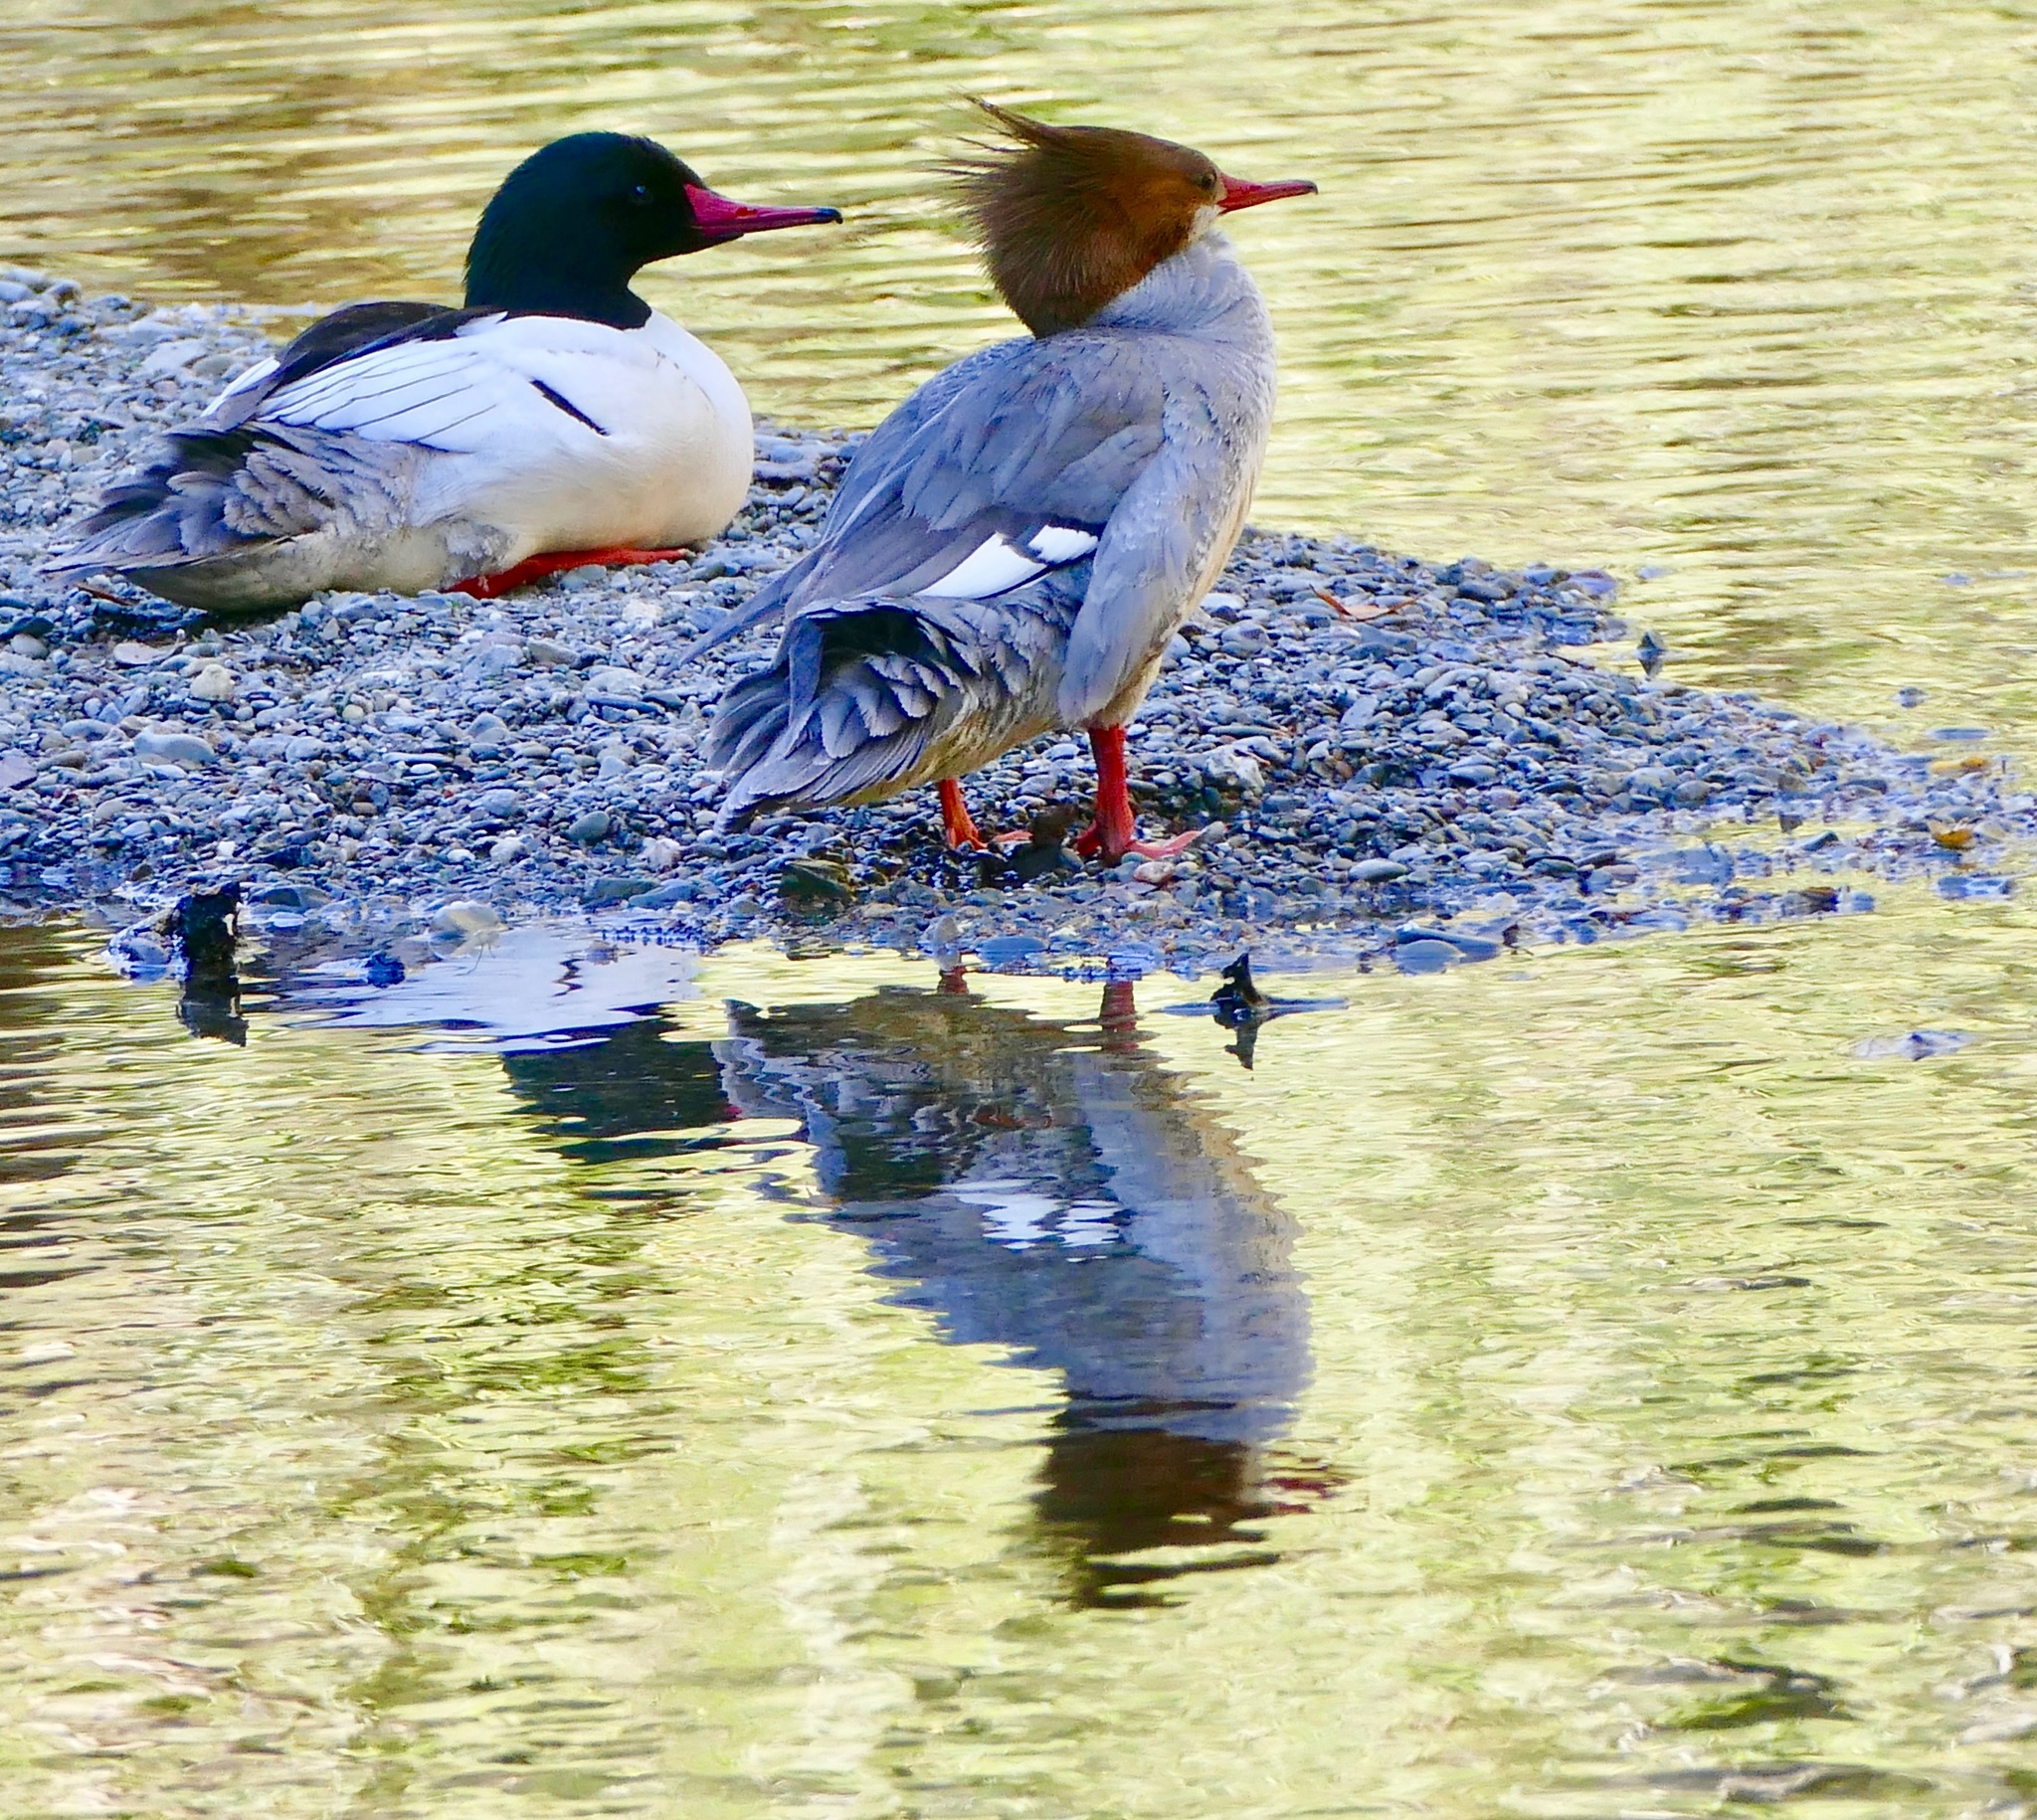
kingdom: Animalia
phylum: Chordata
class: Aves
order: Anseriformes
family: Anatidae
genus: Mergus
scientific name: Mergus merganser
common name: Common merganser
